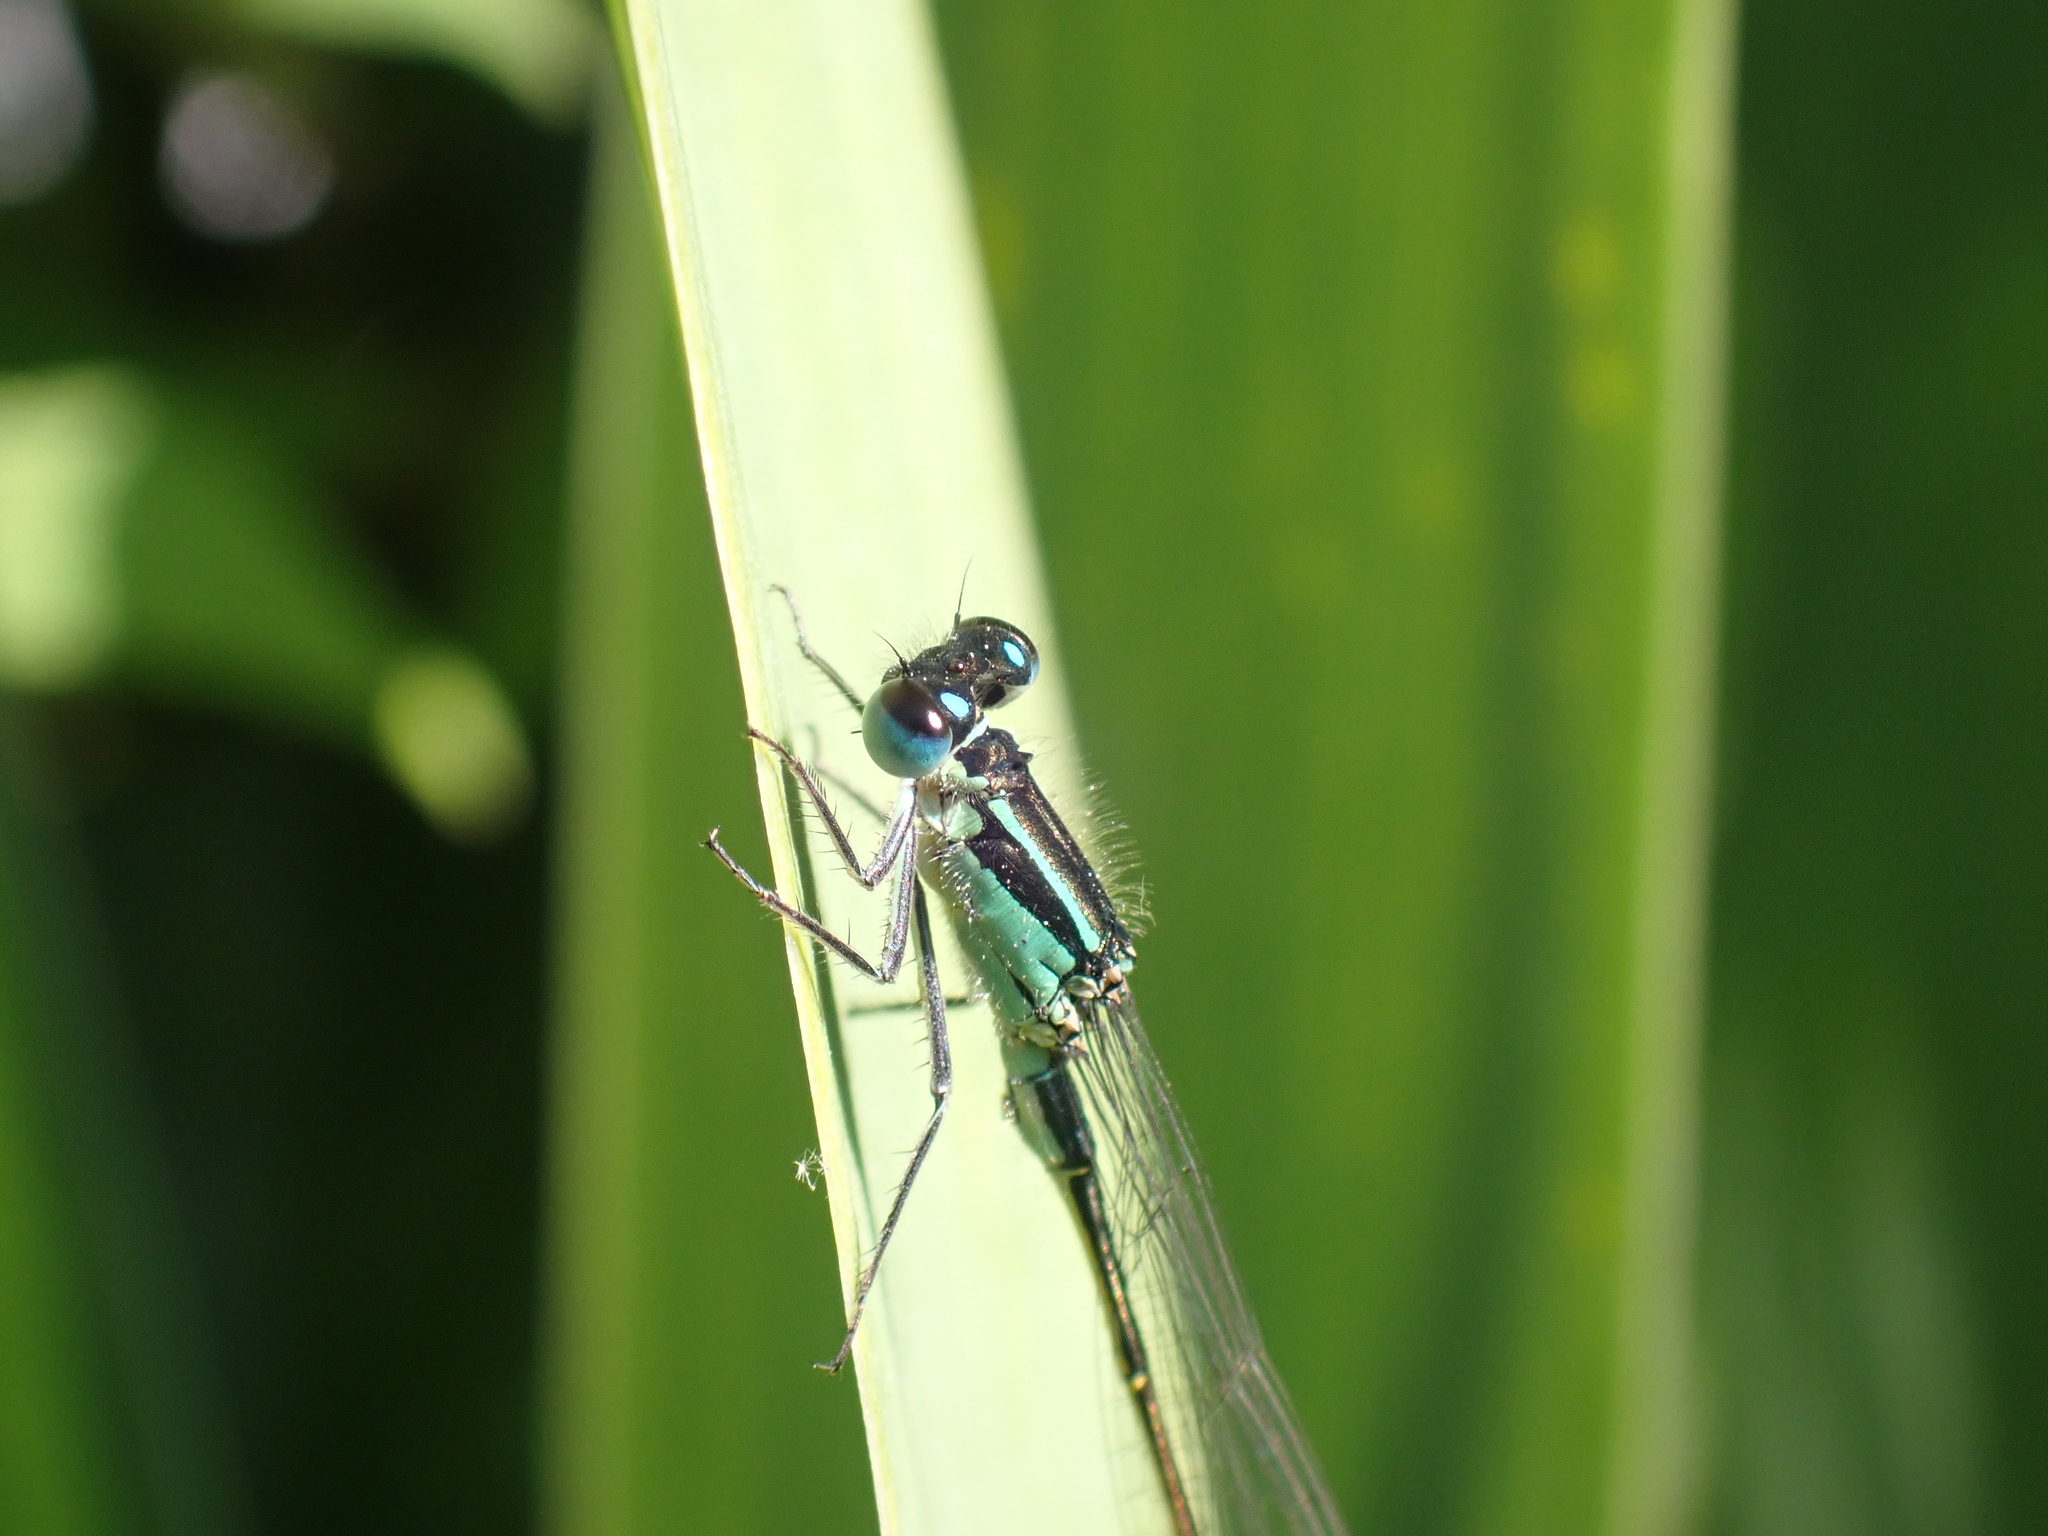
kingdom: Animalia
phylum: Arthropoda
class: Insecta
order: Odonata
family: Coenagrionidae
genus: Ischnura
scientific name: Ischnura elegans
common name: Blue-tailed damselfly
